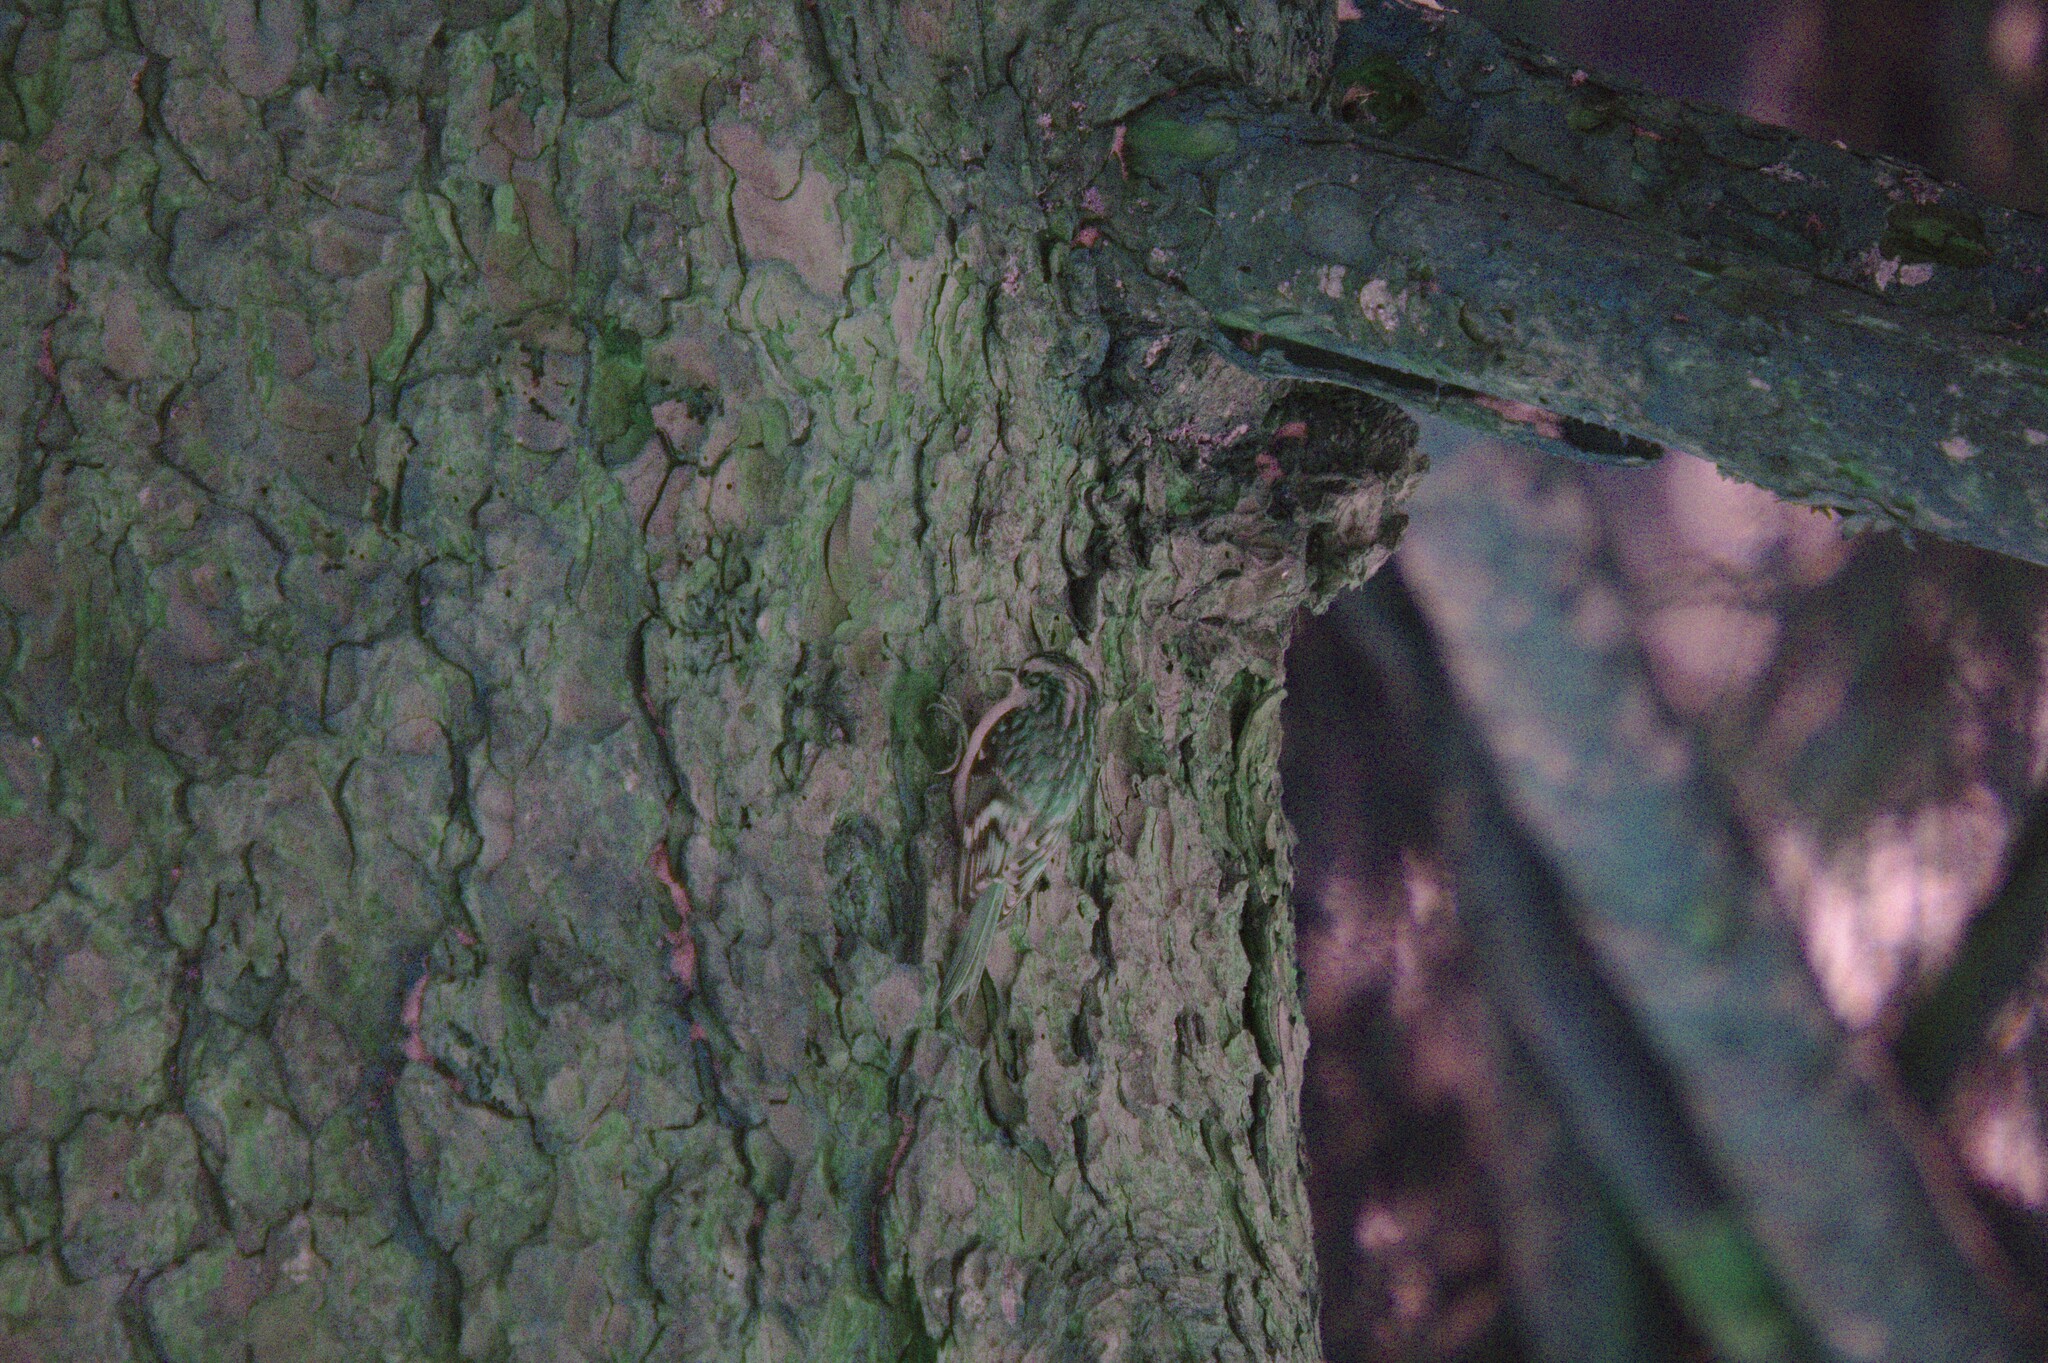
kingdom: Animalia
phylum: Chordata
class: Aves
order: Passeriformes
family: Certhiidae
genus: Certhia
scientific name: Certhia familiaris
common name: Eurasian treecreeper
